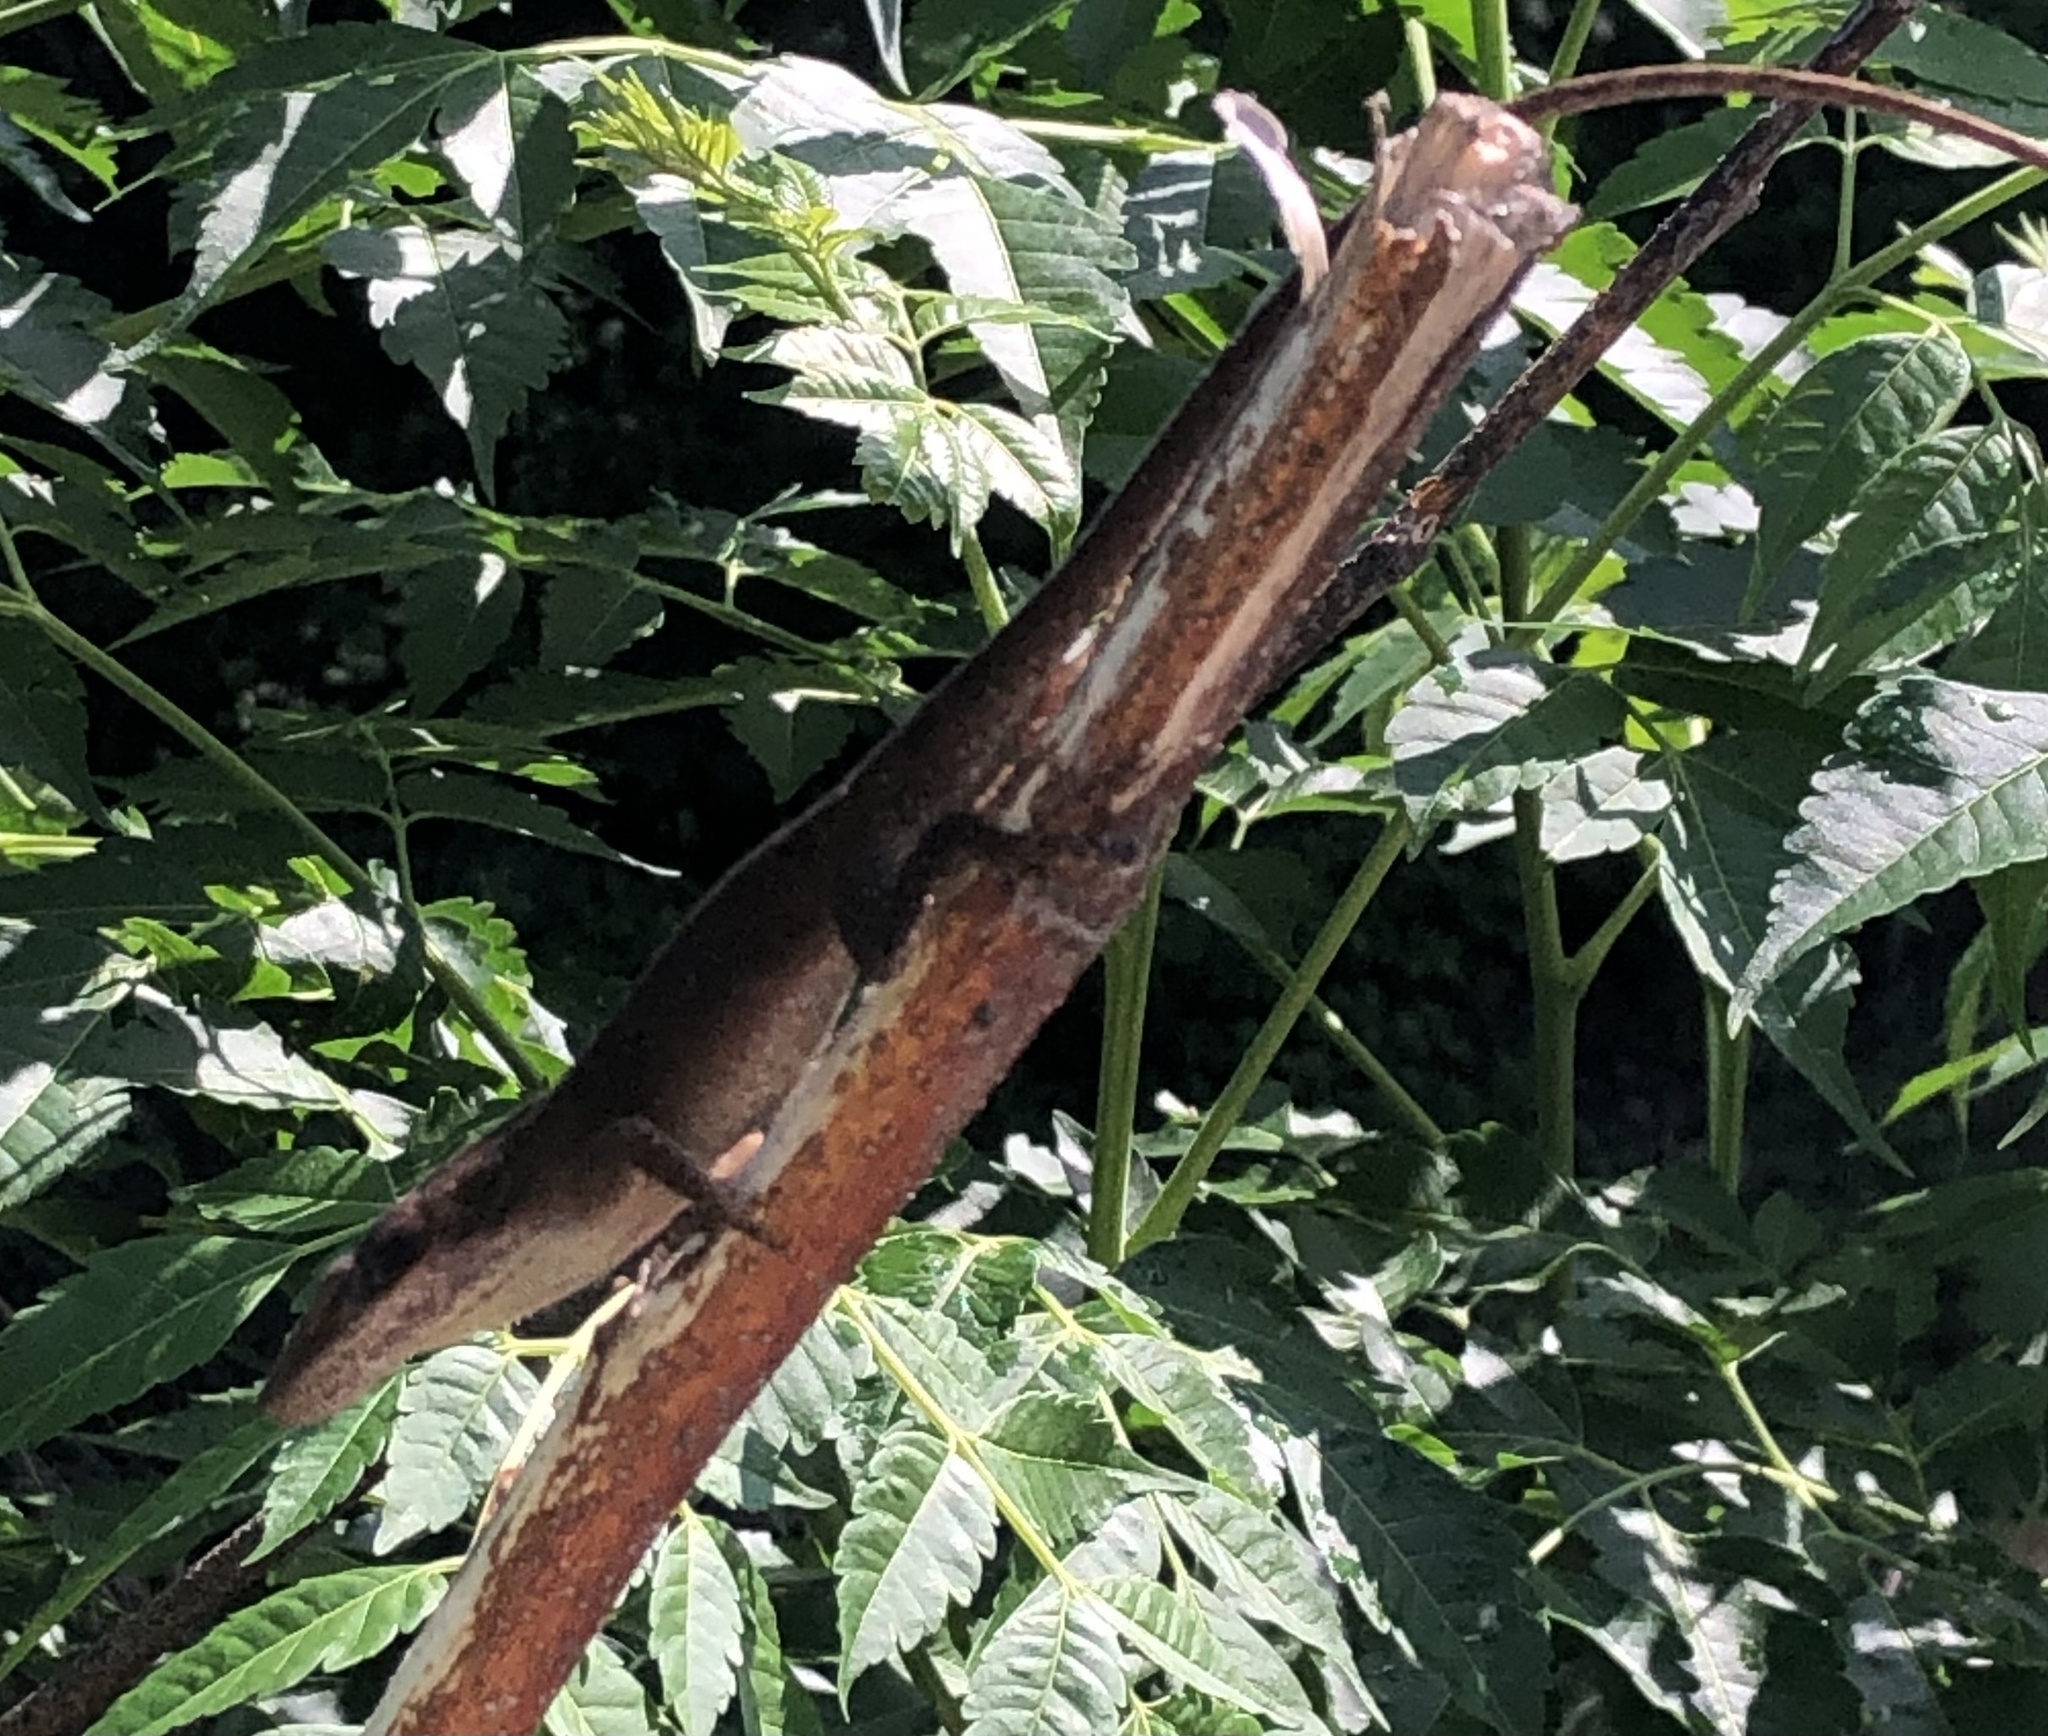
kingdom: Animalia
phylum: Chordata
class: Squamata
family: Dactyloidae
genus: Anolis
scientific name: Anolis carolinensis
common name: Green anole
